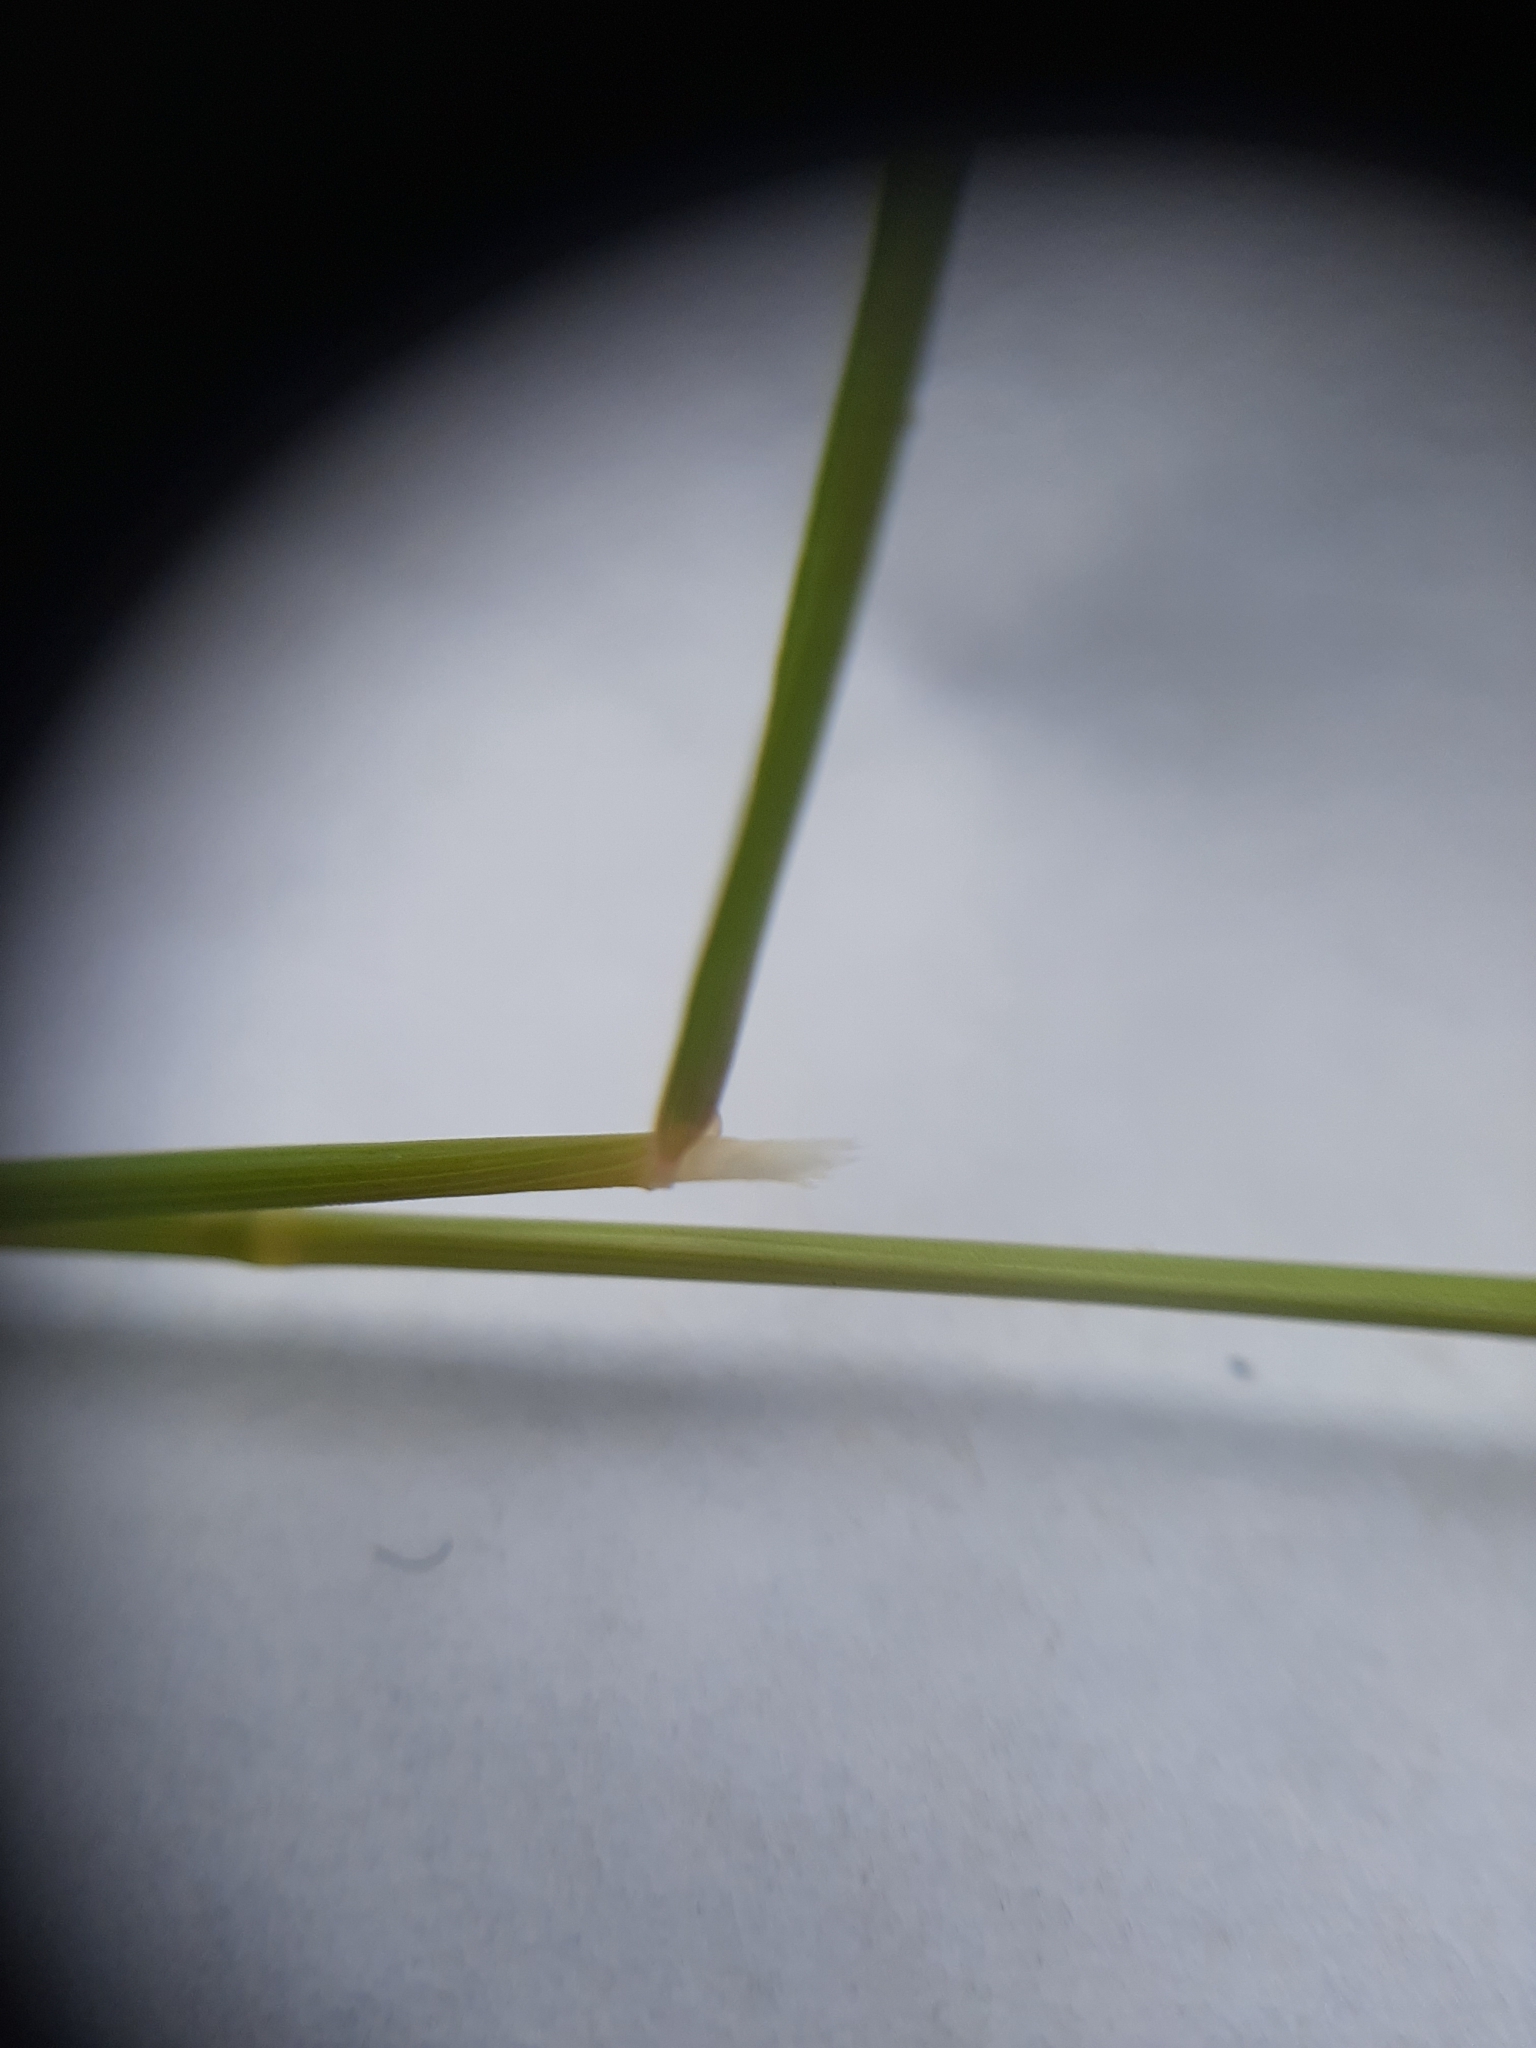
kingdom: Plantae
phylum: Tracheophyta
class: Liliopsida
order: Poales
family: Poaceae
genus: Agrostis
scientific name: Agrostis stolonifera
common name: Creeping bentgrass
